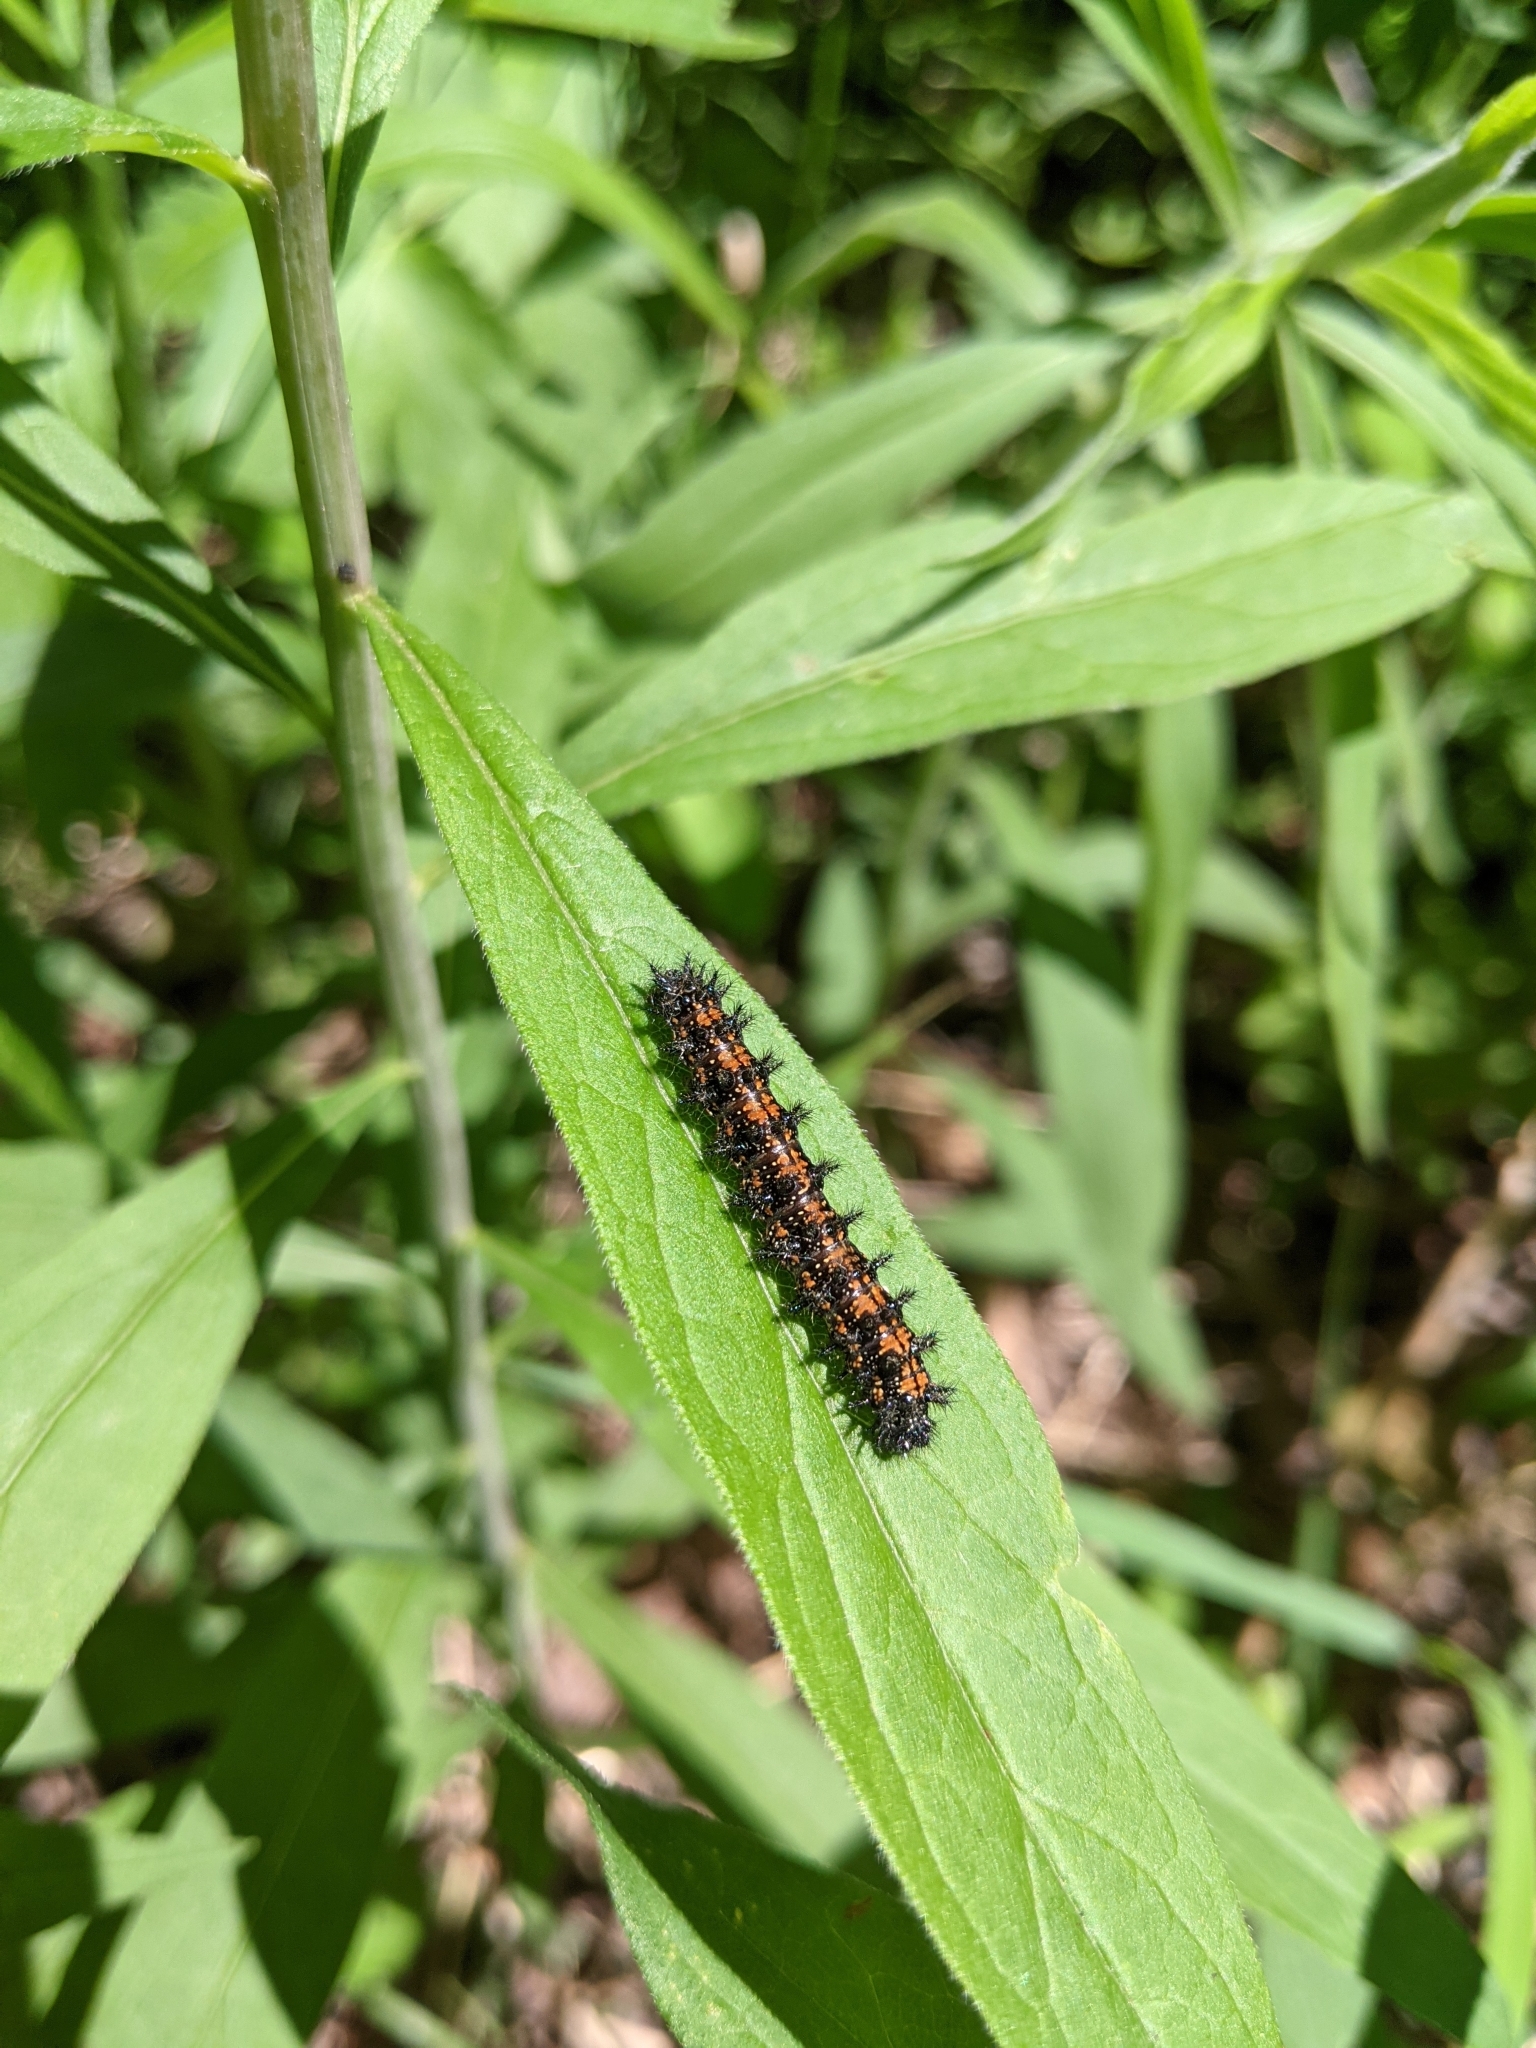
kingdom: Animalia
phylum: Arthropoda
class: Insecta
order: Lepidoptera
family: Nymphalidae
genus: Chlosyne
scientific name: Chlosyne harrisii
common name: Harris's checkerspot
